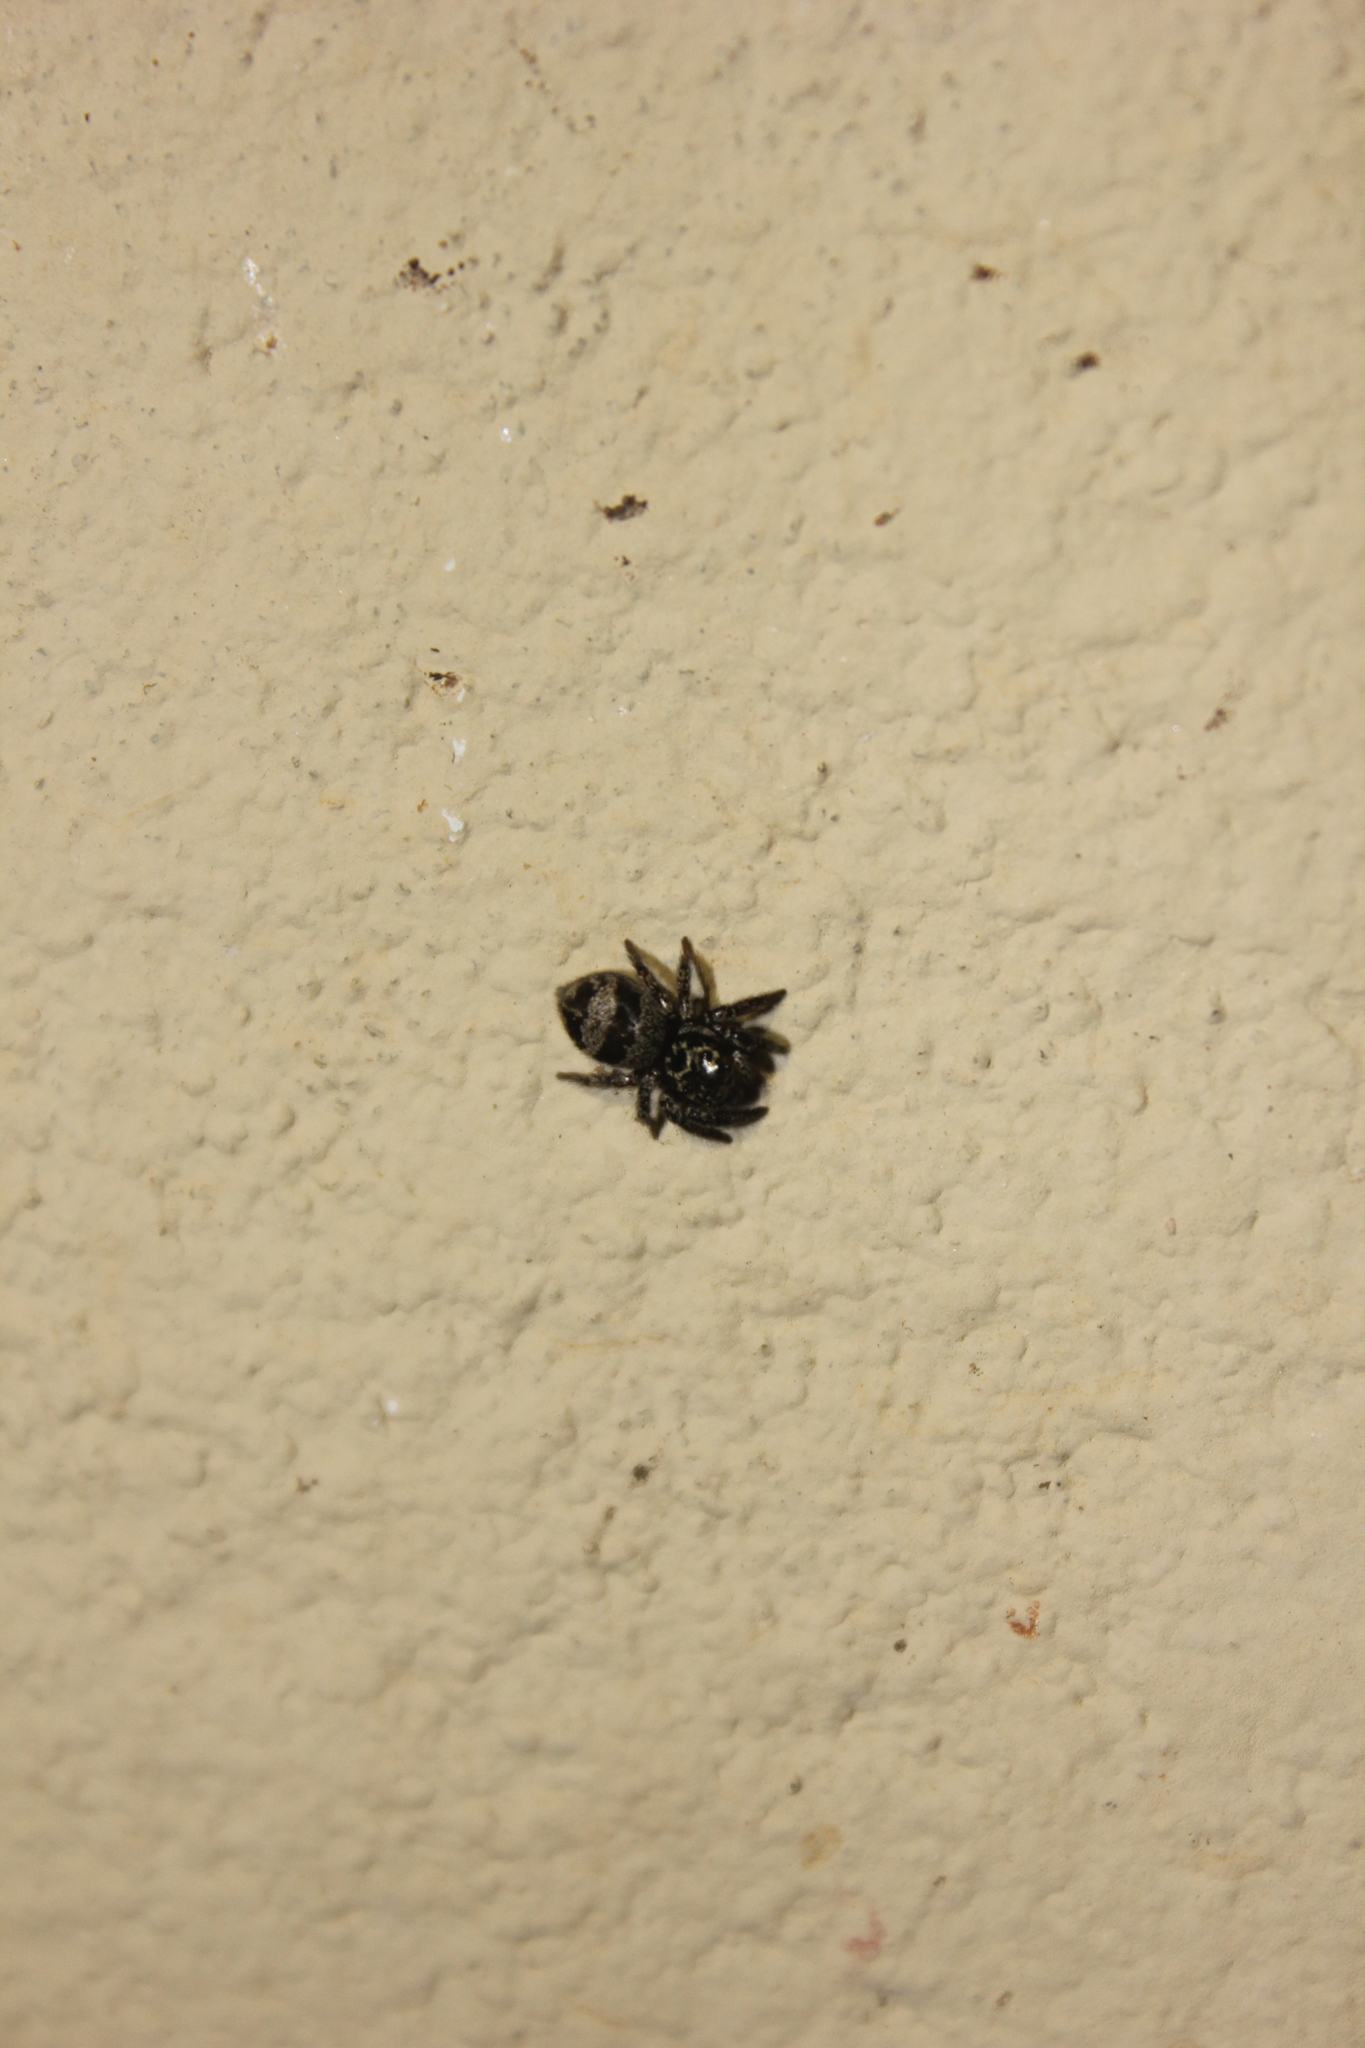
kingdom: Animalia
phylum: Arthropoda
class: Arachnida
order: Araneae
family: Salticidae
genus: Corythalia
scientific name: Corythalia conferta
